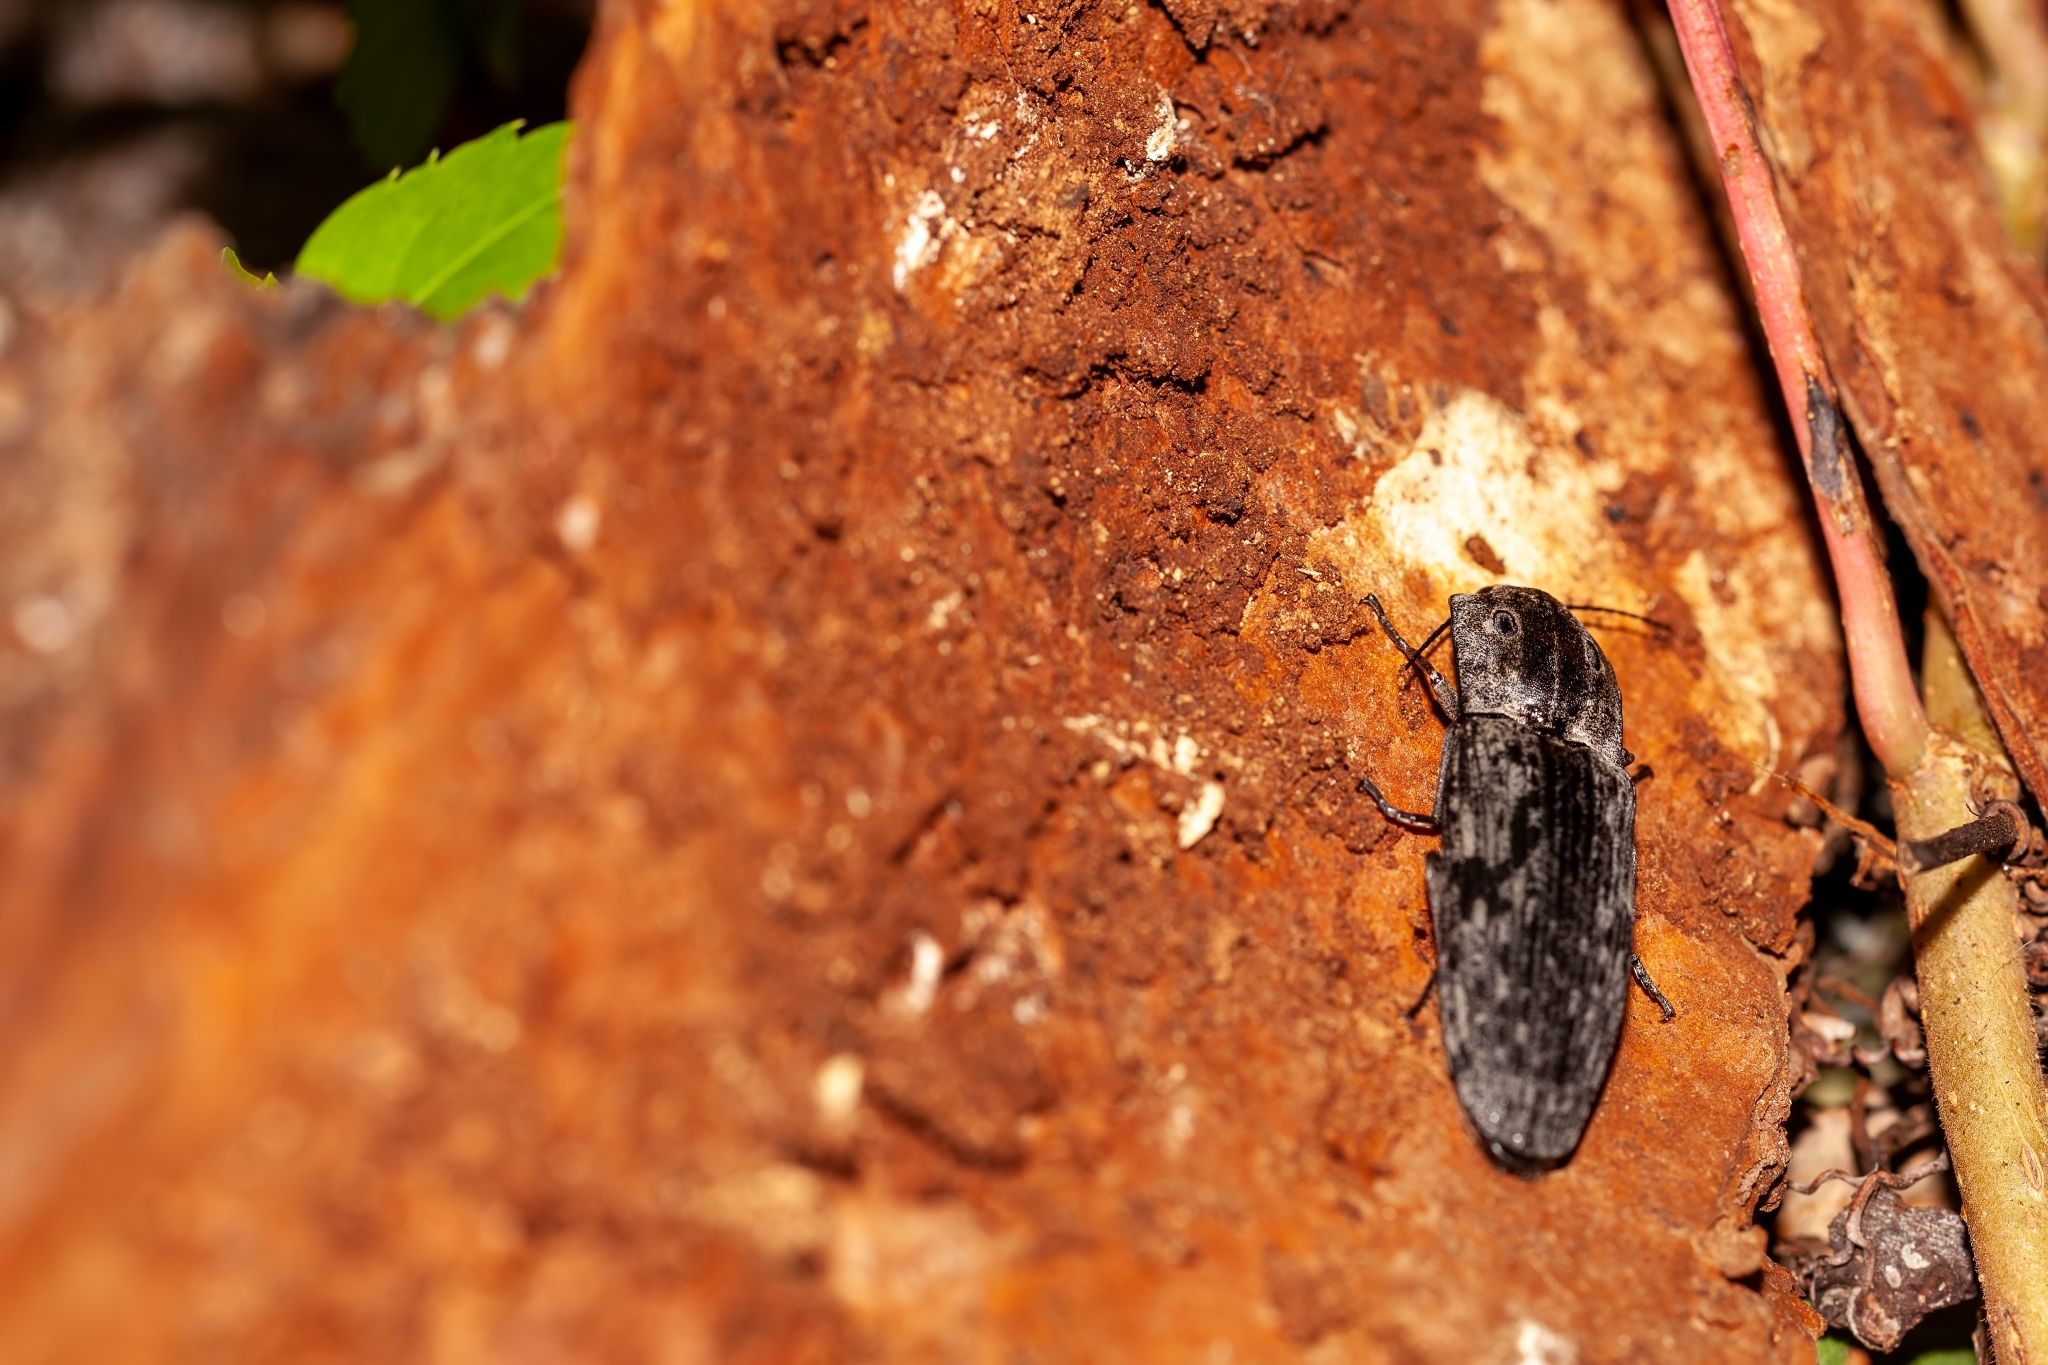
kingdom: Animalia
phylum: Arthropoda
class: Insecta
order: Coleoptera
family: Elateridae
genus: Alaus
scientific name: Alaus myops
